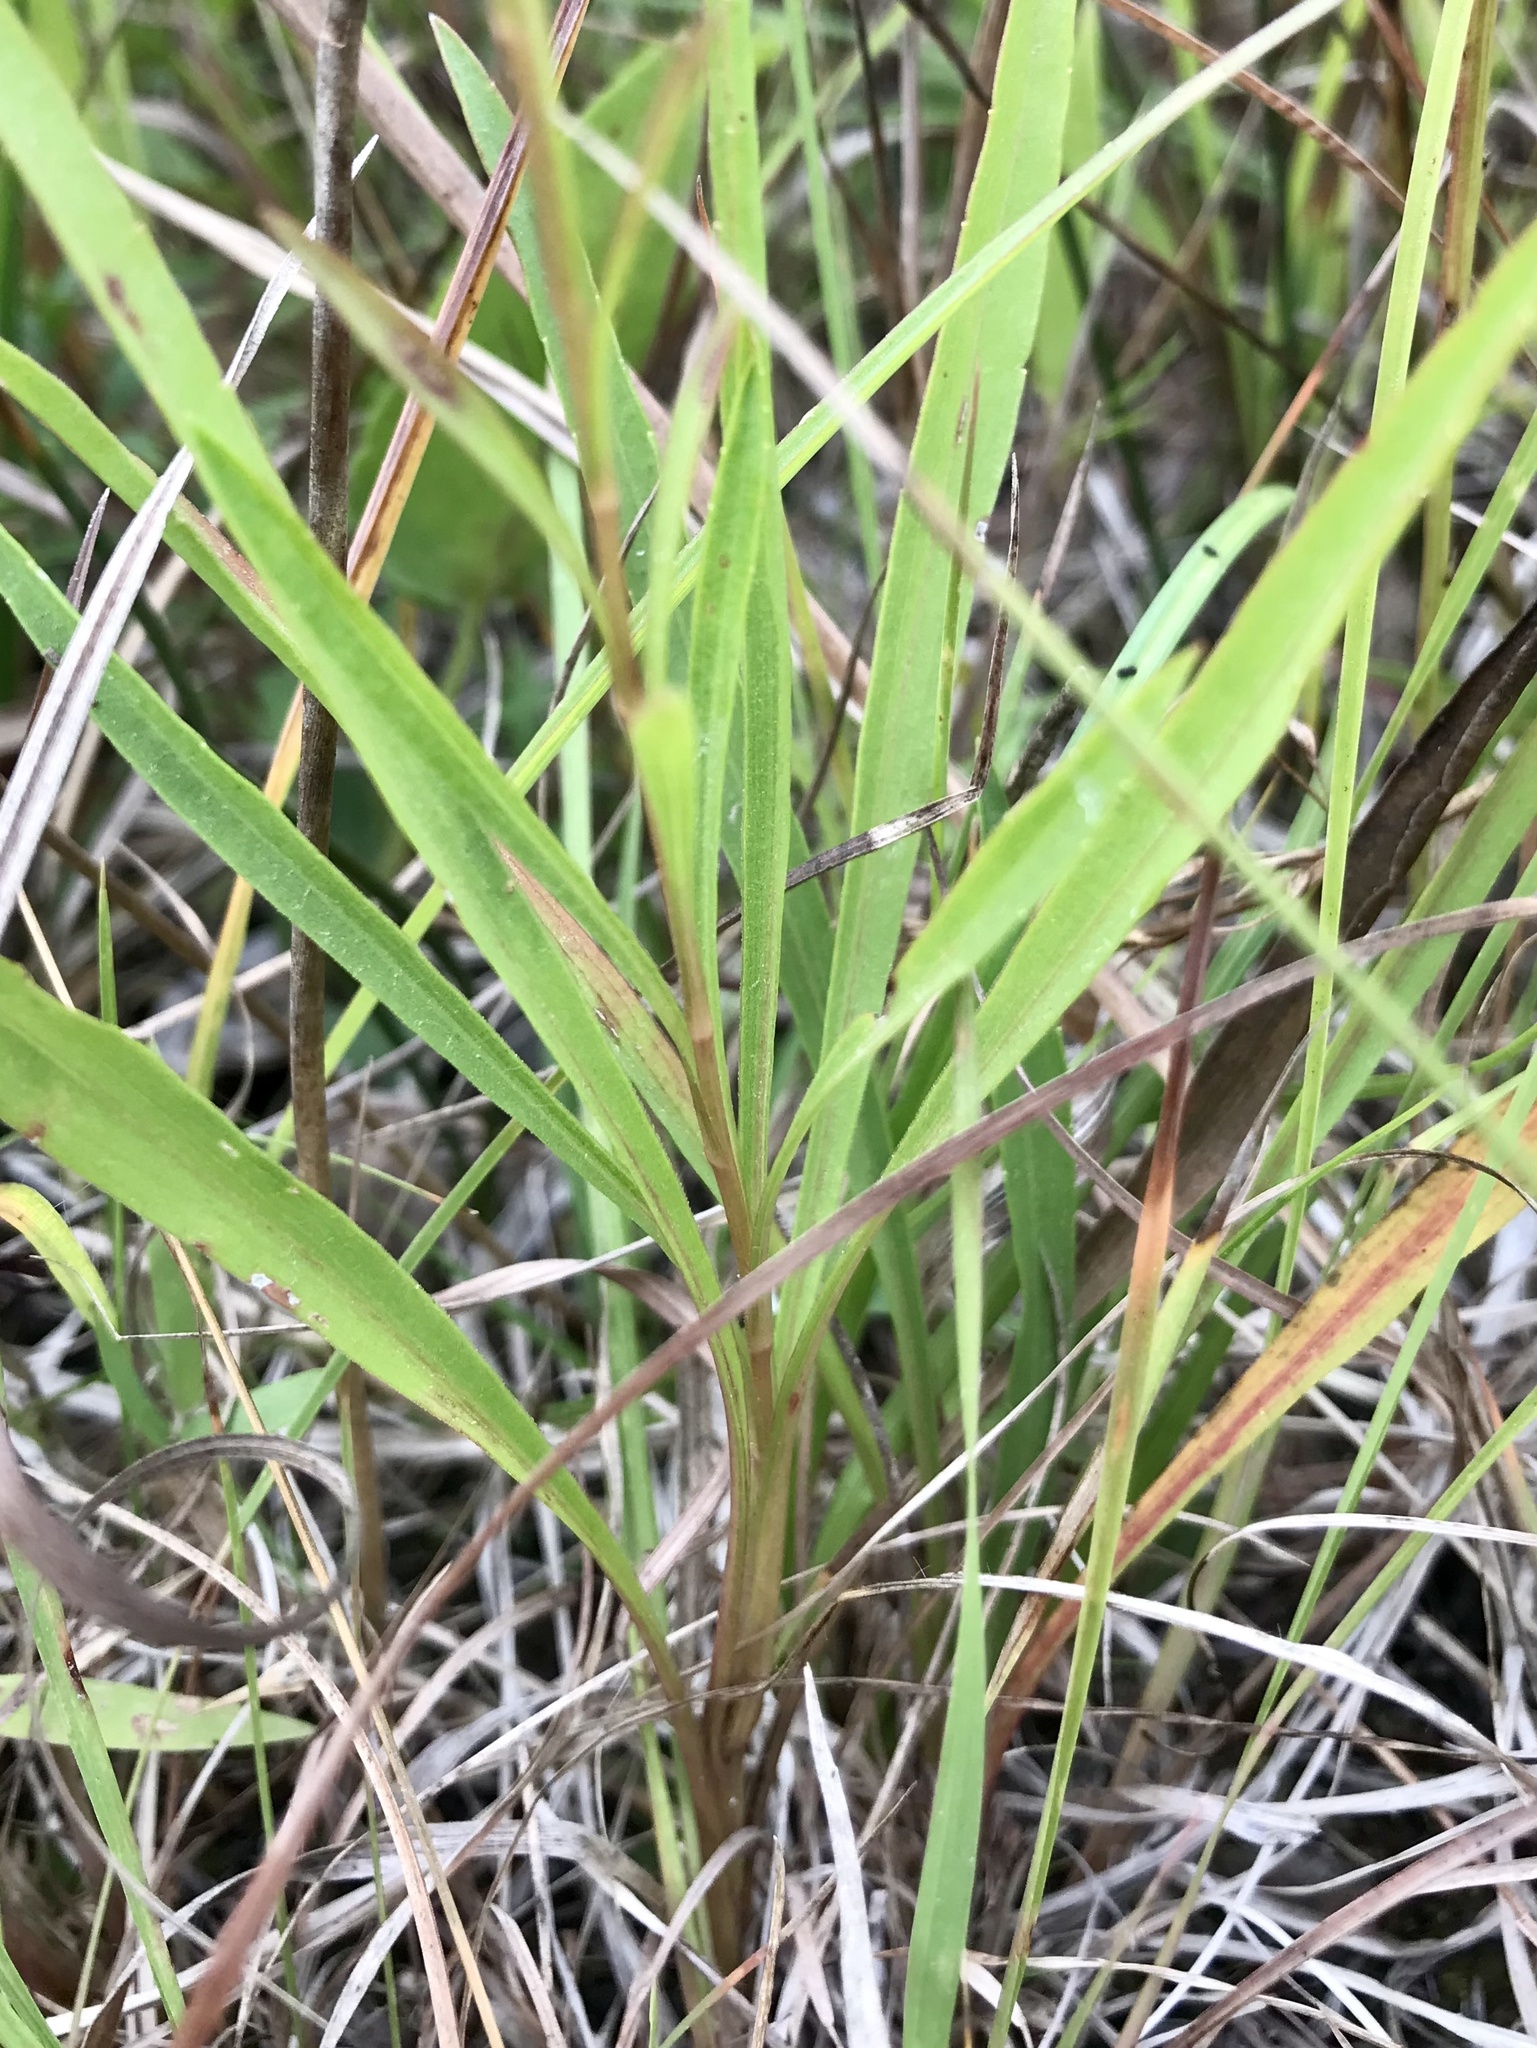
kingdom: Plantae
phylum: Tracheophyta
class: Magnoliopsida
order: Asterales
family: Asteraceae
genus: Solidago
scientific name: Solidago ptarmicoides
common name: White flat-top goldenrod
